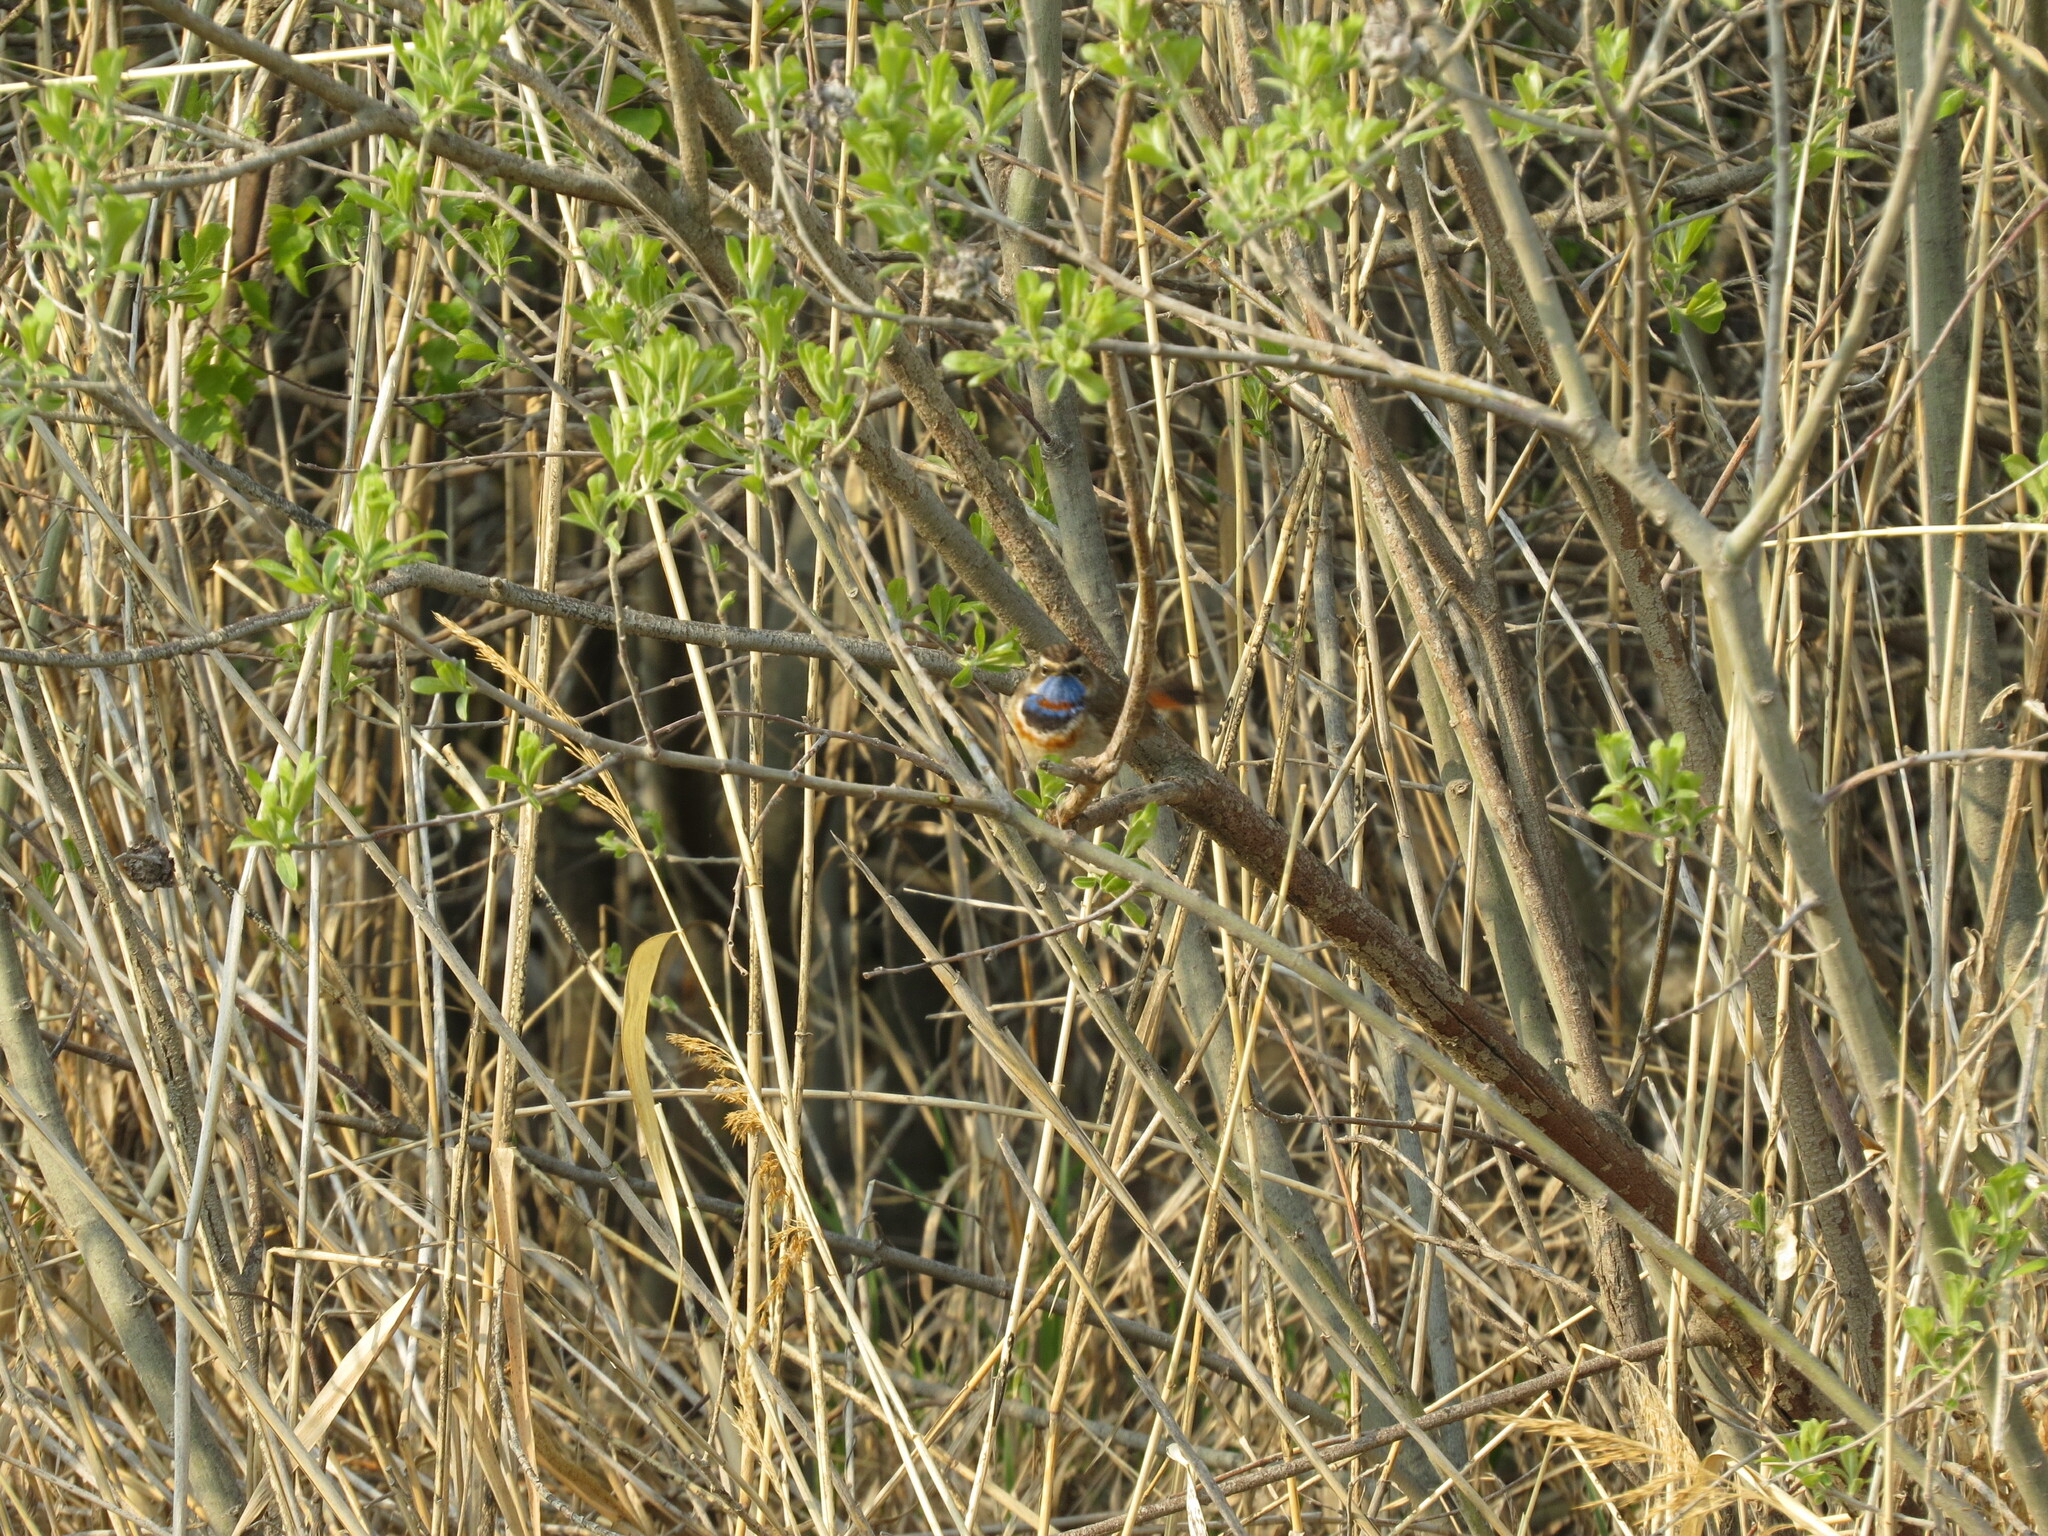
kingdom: Animalia
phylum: Chordata
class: Aves
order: Passeriformes
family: Muscicapidae
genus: Luscinia
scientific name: Luscinia svecica
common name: Bluethroat
